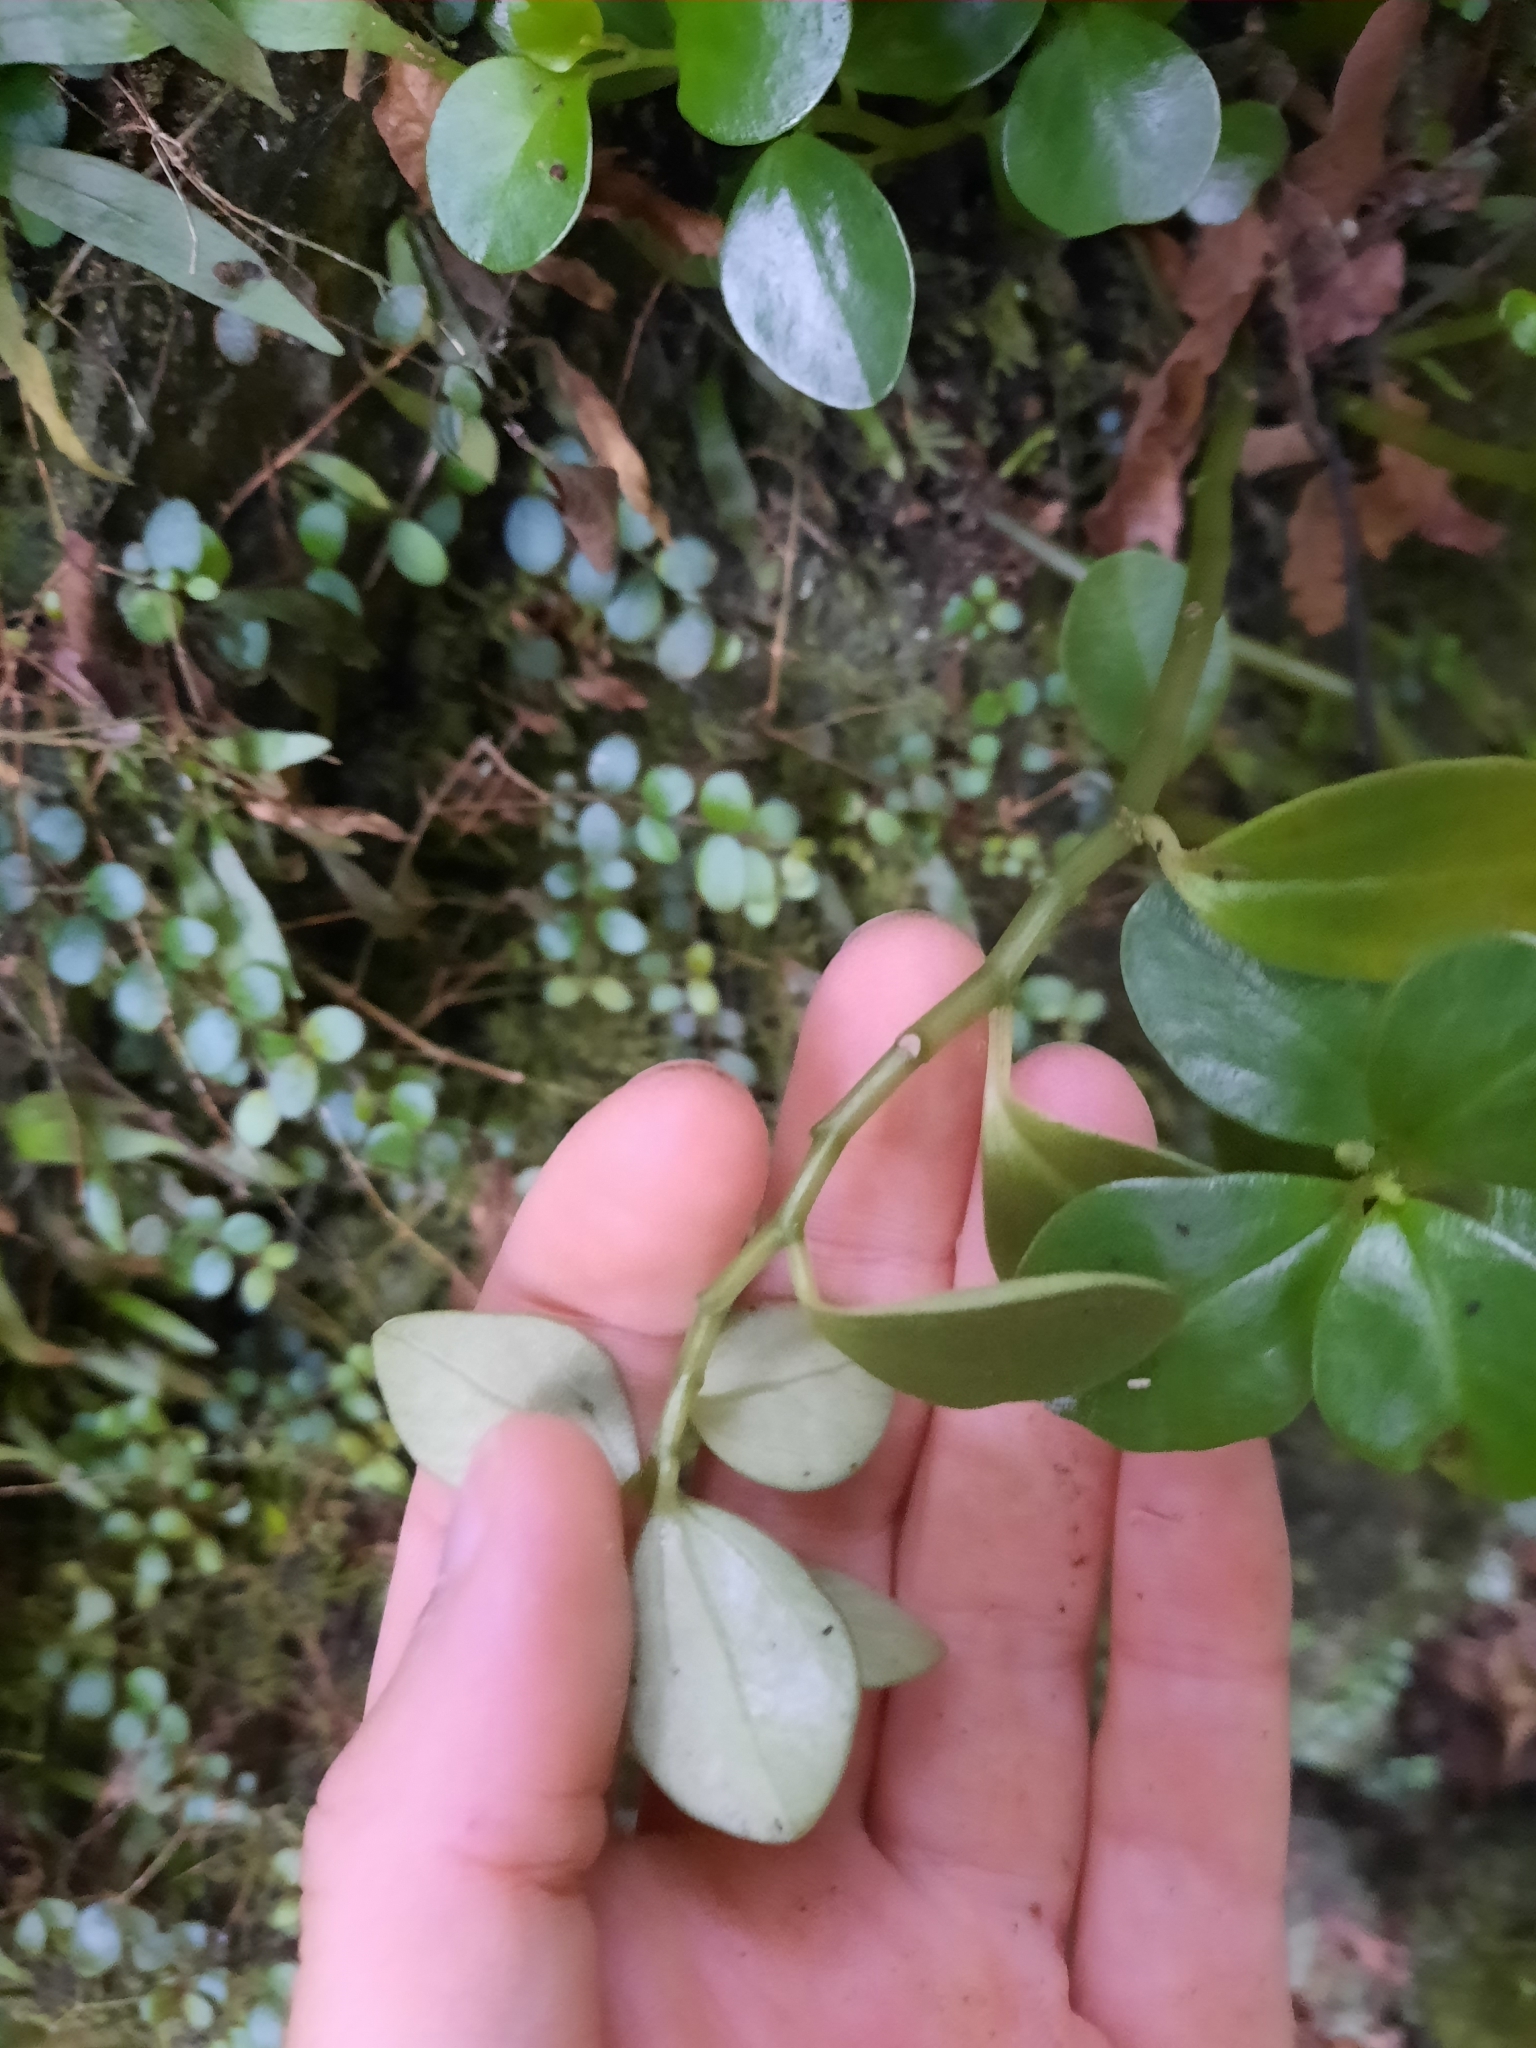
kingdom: Plantae
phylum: Tracheophyta
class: Magnoliopsida
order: Piperales
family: Piperaceae
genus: Peperomia
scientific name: Peperomia urvilleana
